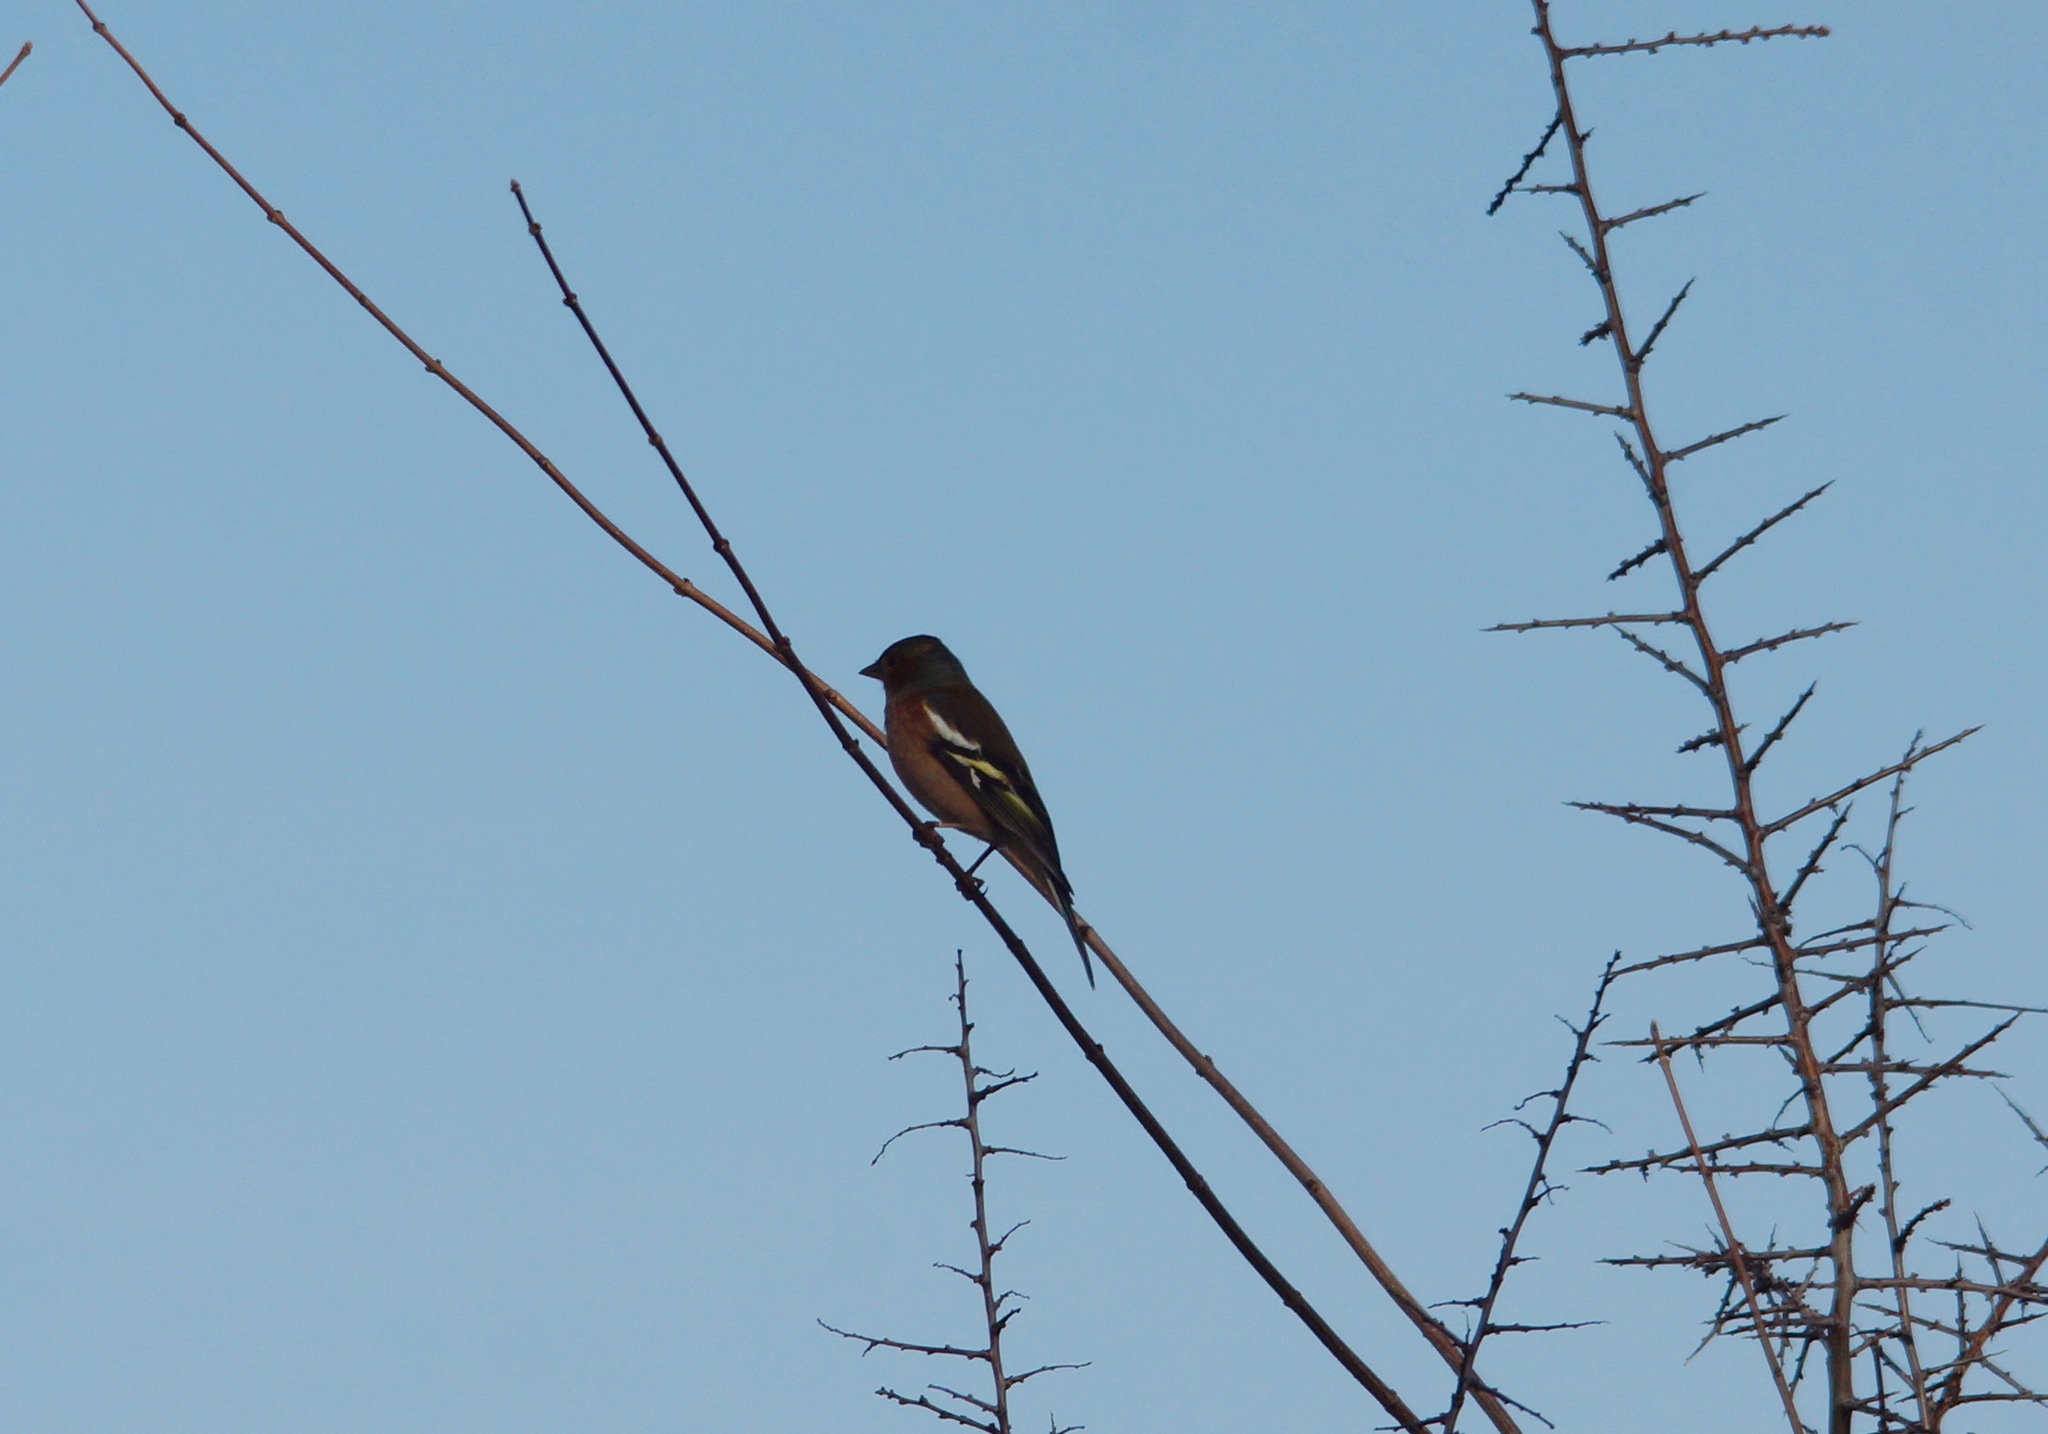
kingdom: Animalia
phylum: Chordata
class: Aves
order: Passeriformes
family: Fringillidae
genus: Fringilla
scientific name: Fringilla coelebs
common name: Common chaffinch
